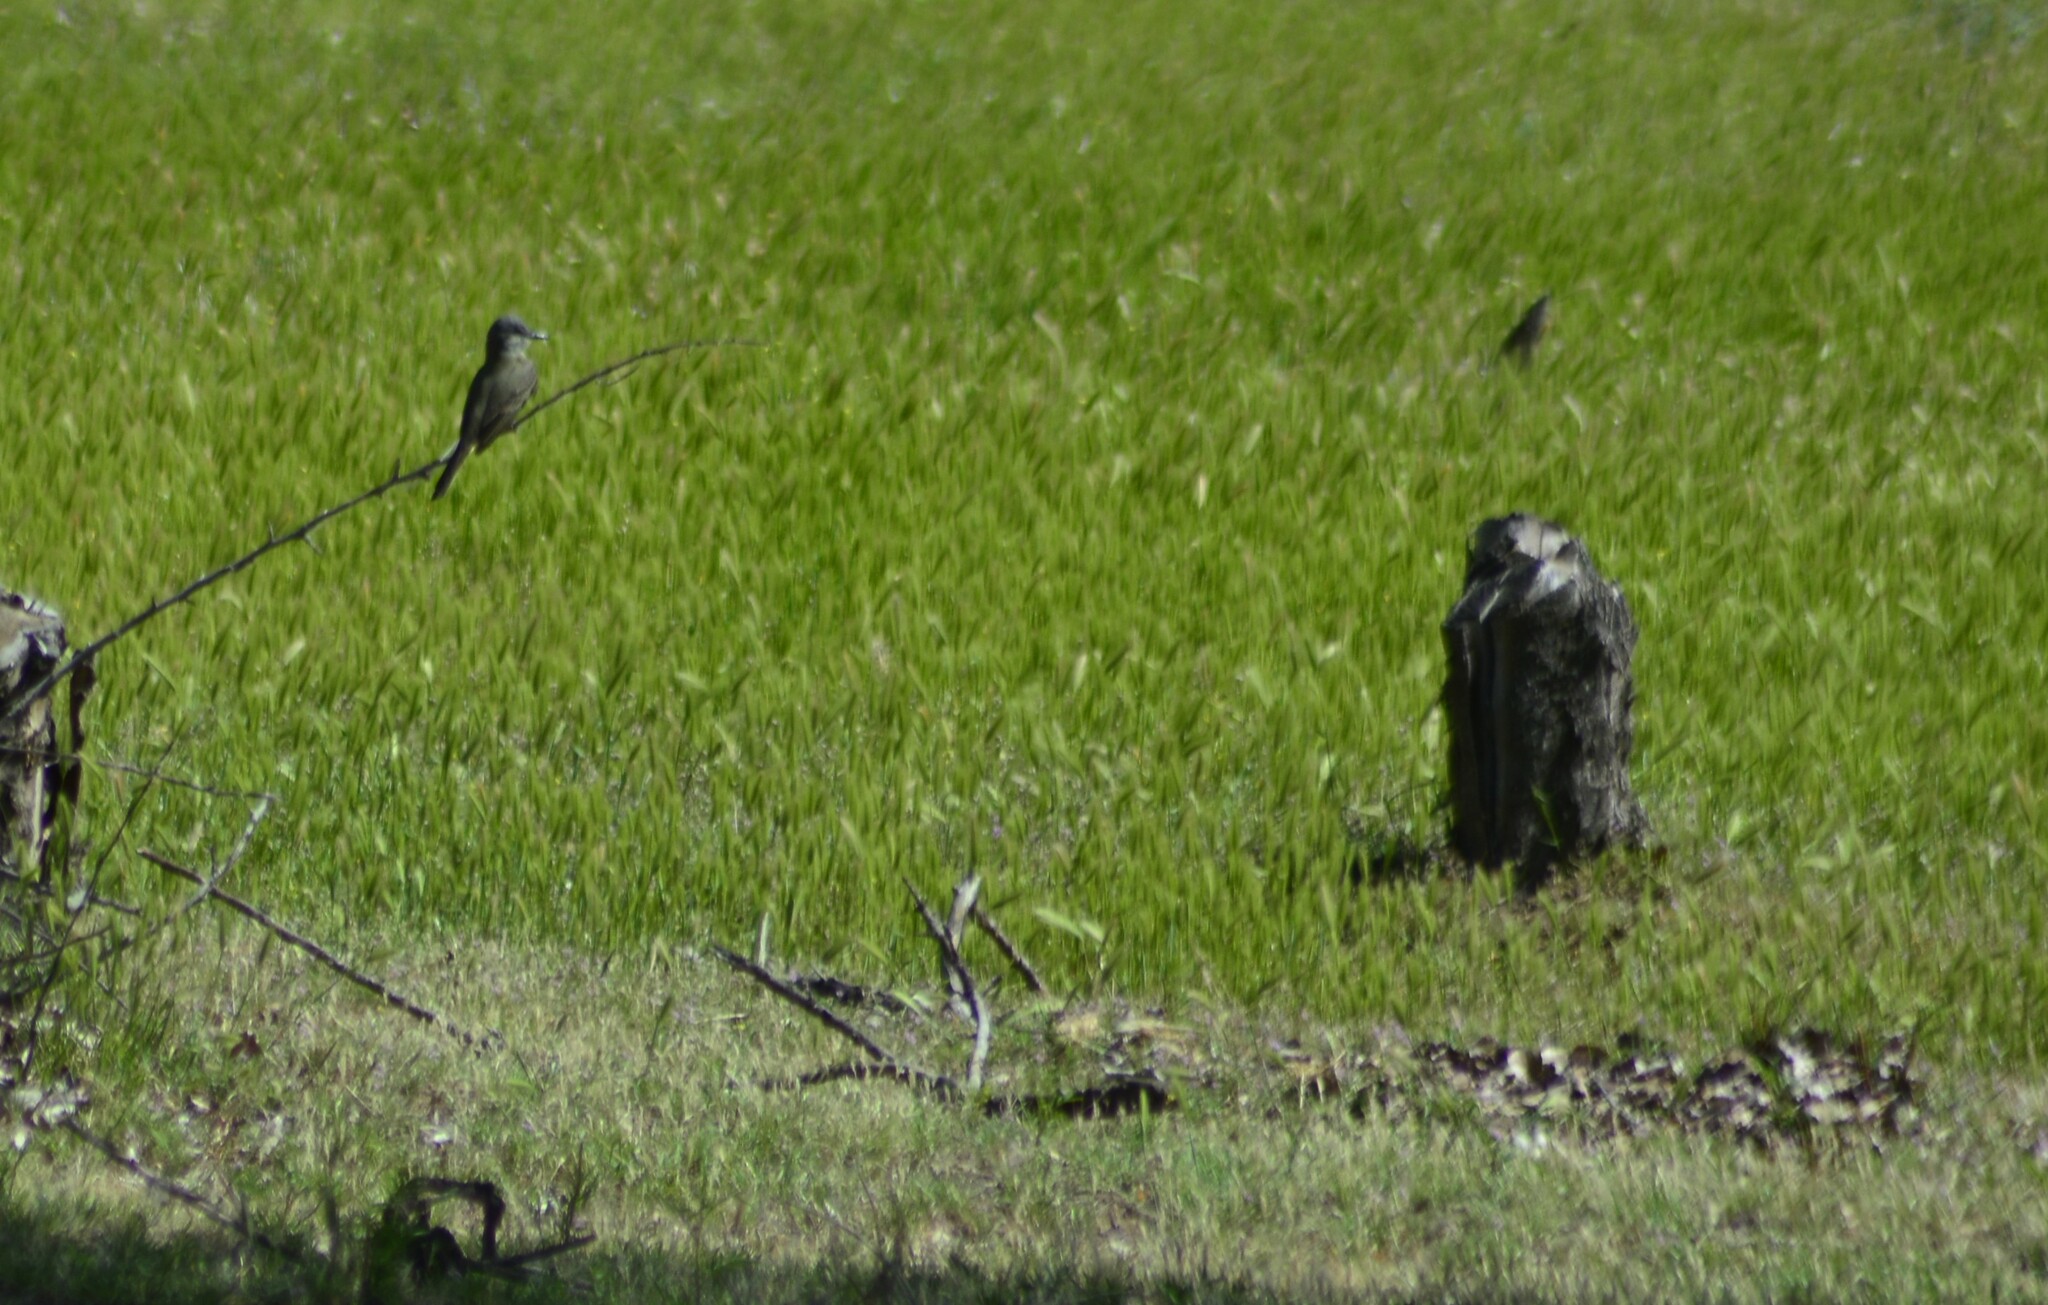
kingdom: Animalia
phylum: Chordata
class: Aves
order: Passeriformes
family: Tyrannidae
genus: Machetornis
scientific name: Machetornis rixosa
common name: Cattle tyrant
